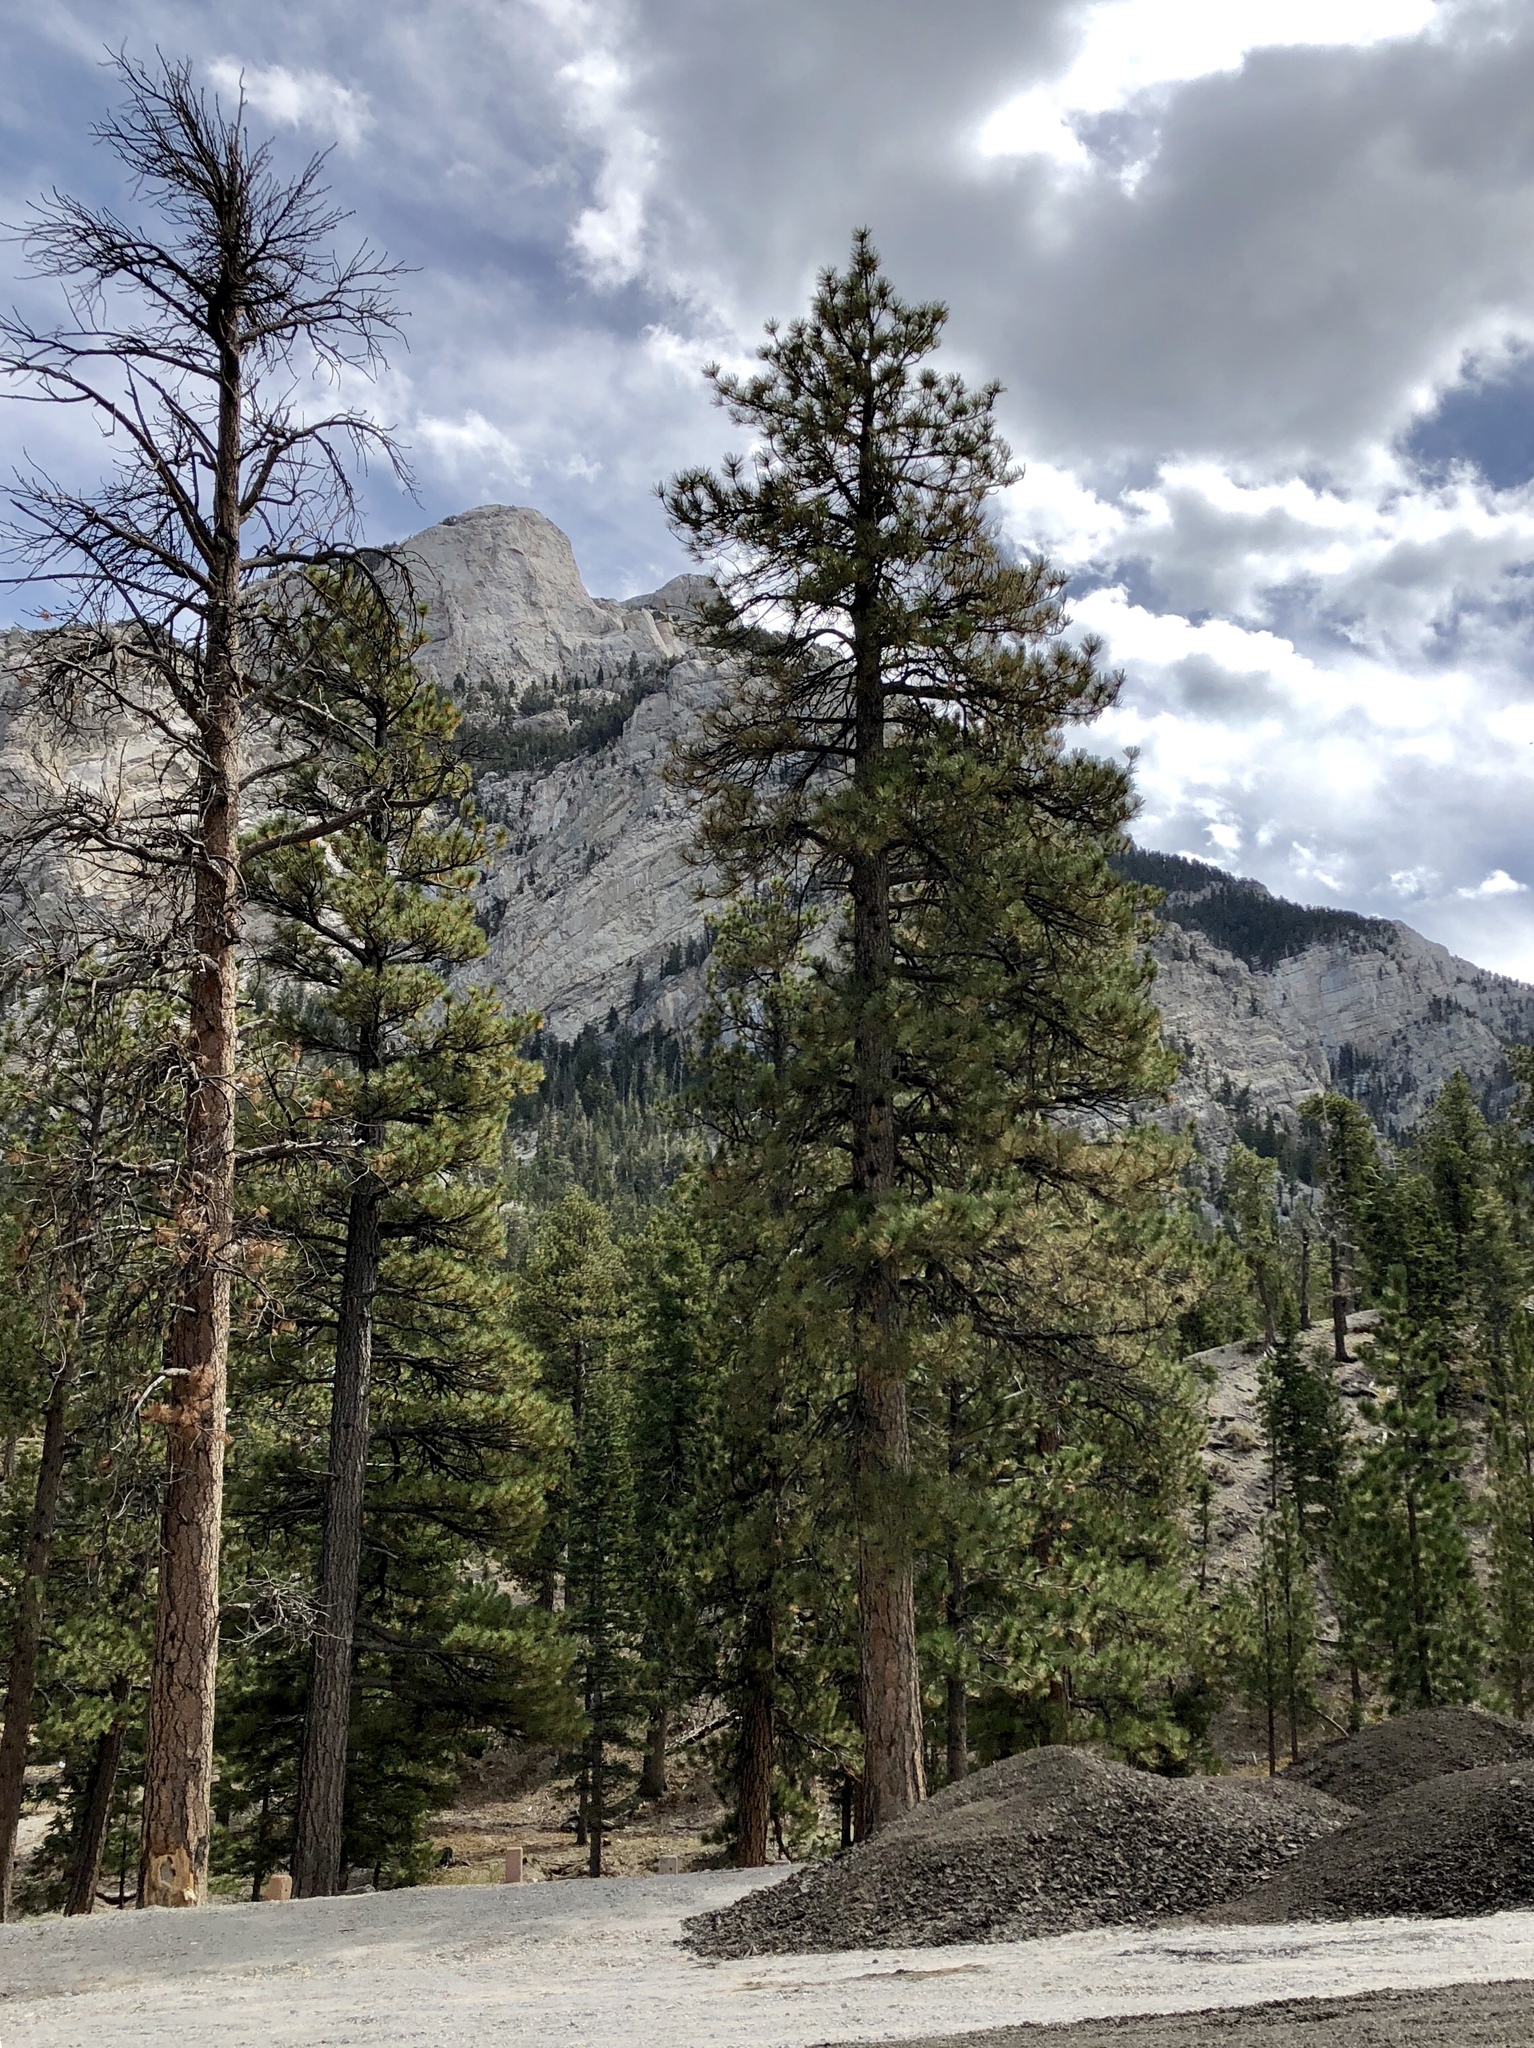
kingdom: Plantae
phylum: Tracheophyta
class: Pinopsida
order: Pinales
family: Pinaceae
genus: Pinus
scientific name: Pinus ponderosa
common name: Western yellow-pine
